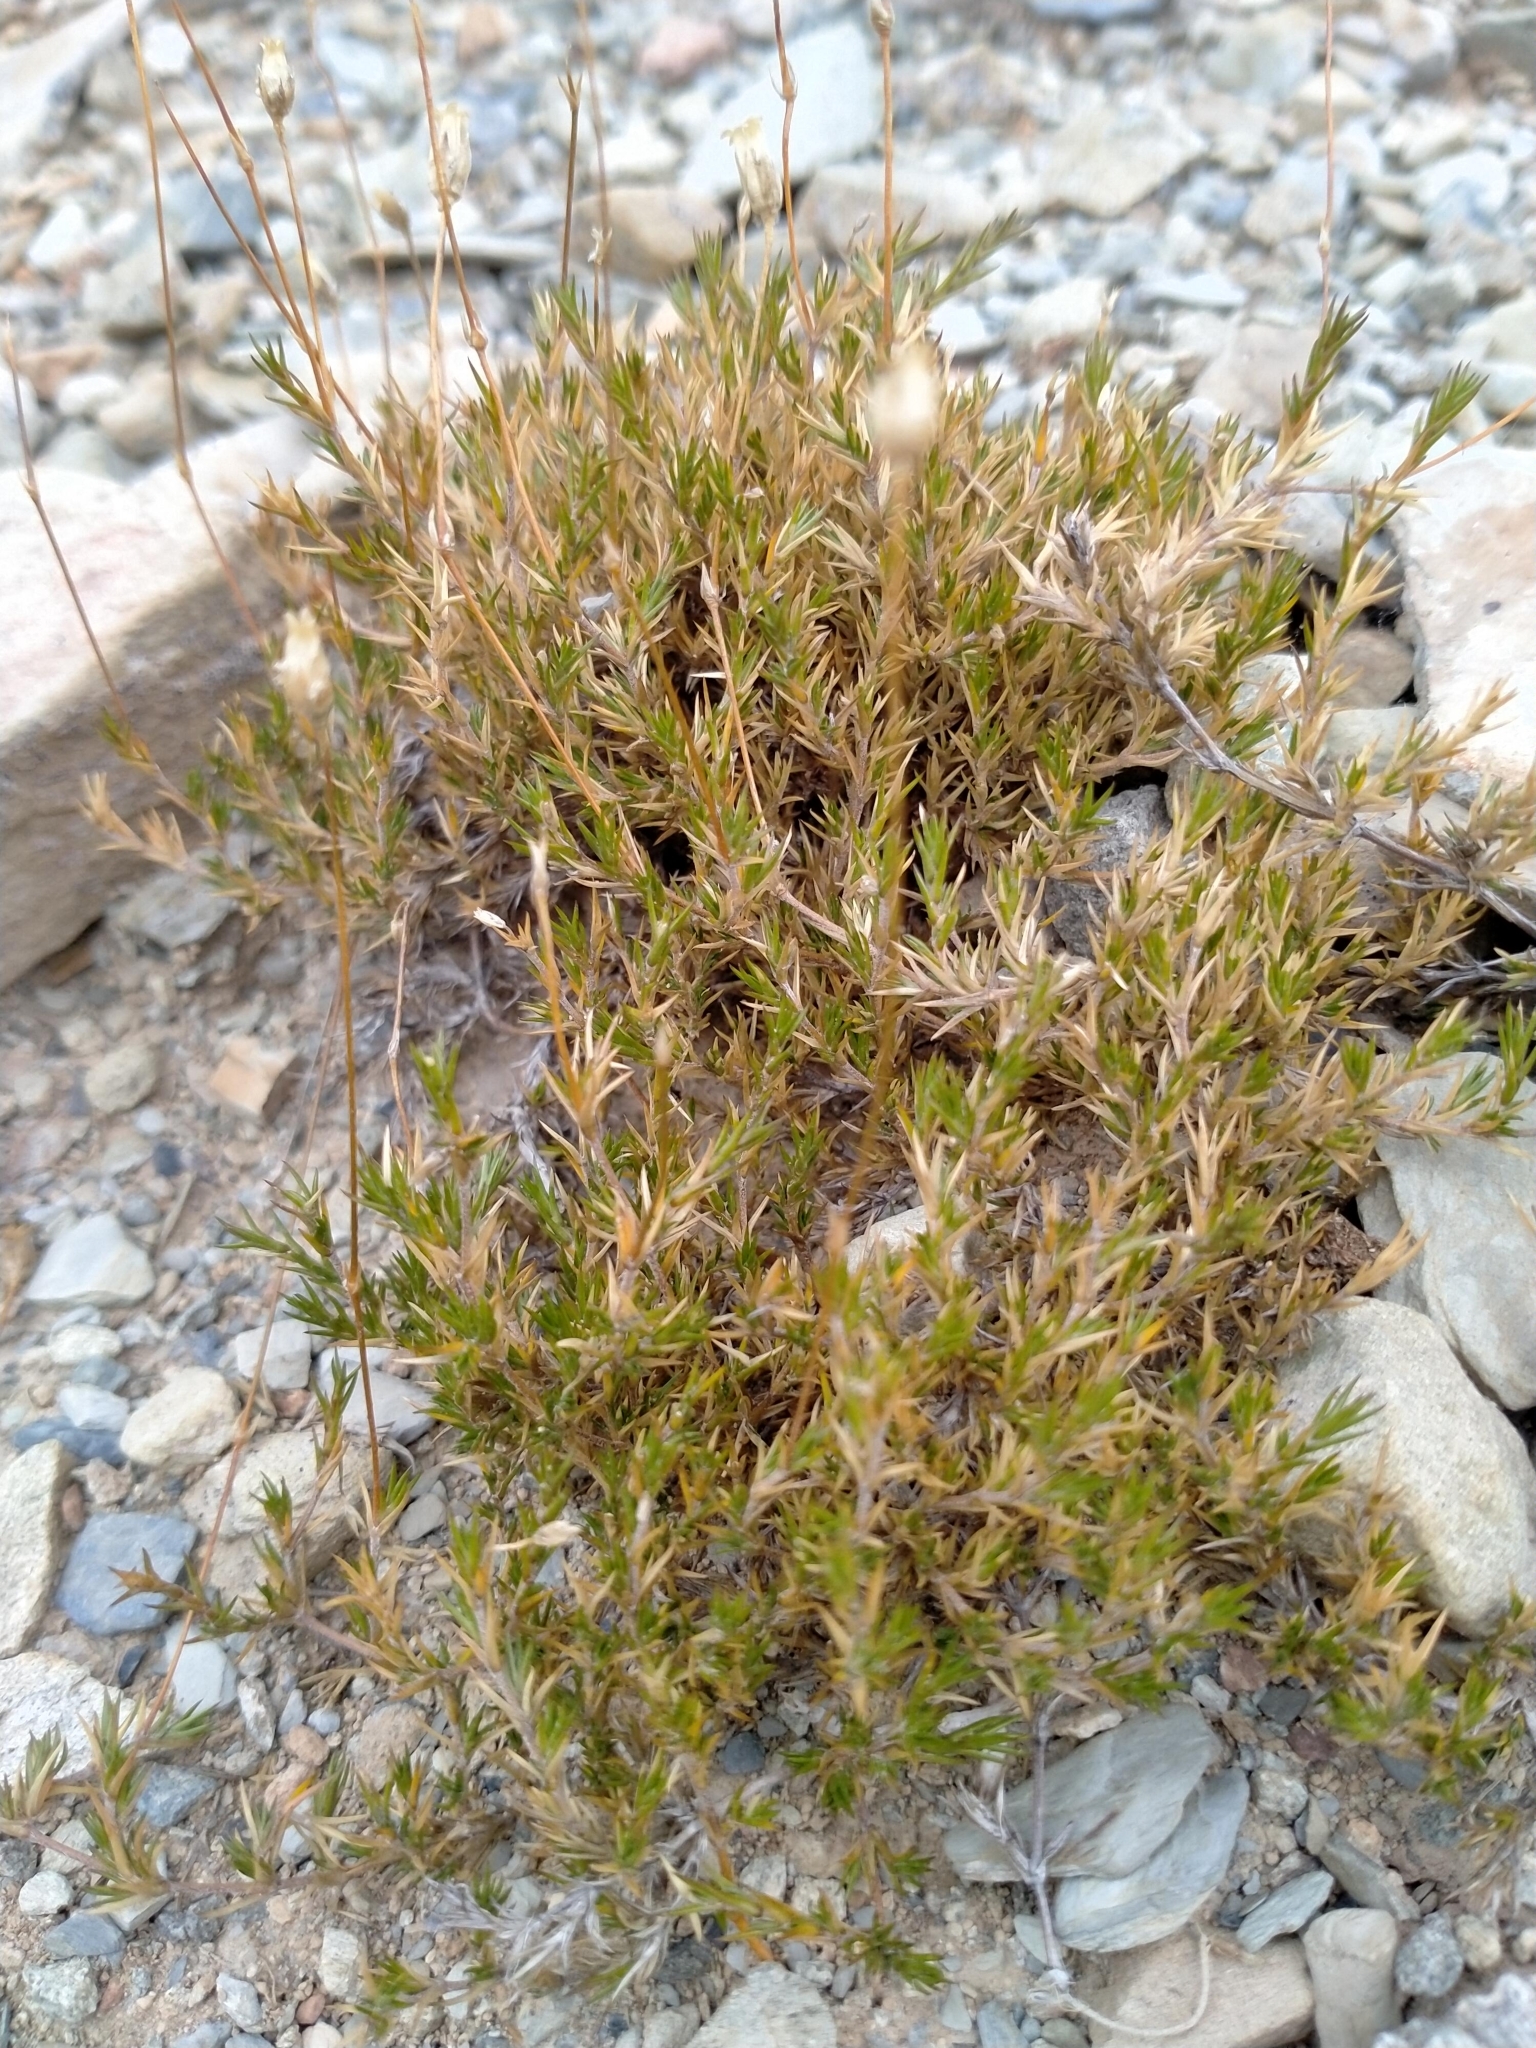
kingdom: Plantae
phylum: Tracheophyta
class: Magnoliopsida
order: Caryophyllales
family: Caryophyllaceae
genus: Stellaria
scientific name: Stellaria gracilenta
